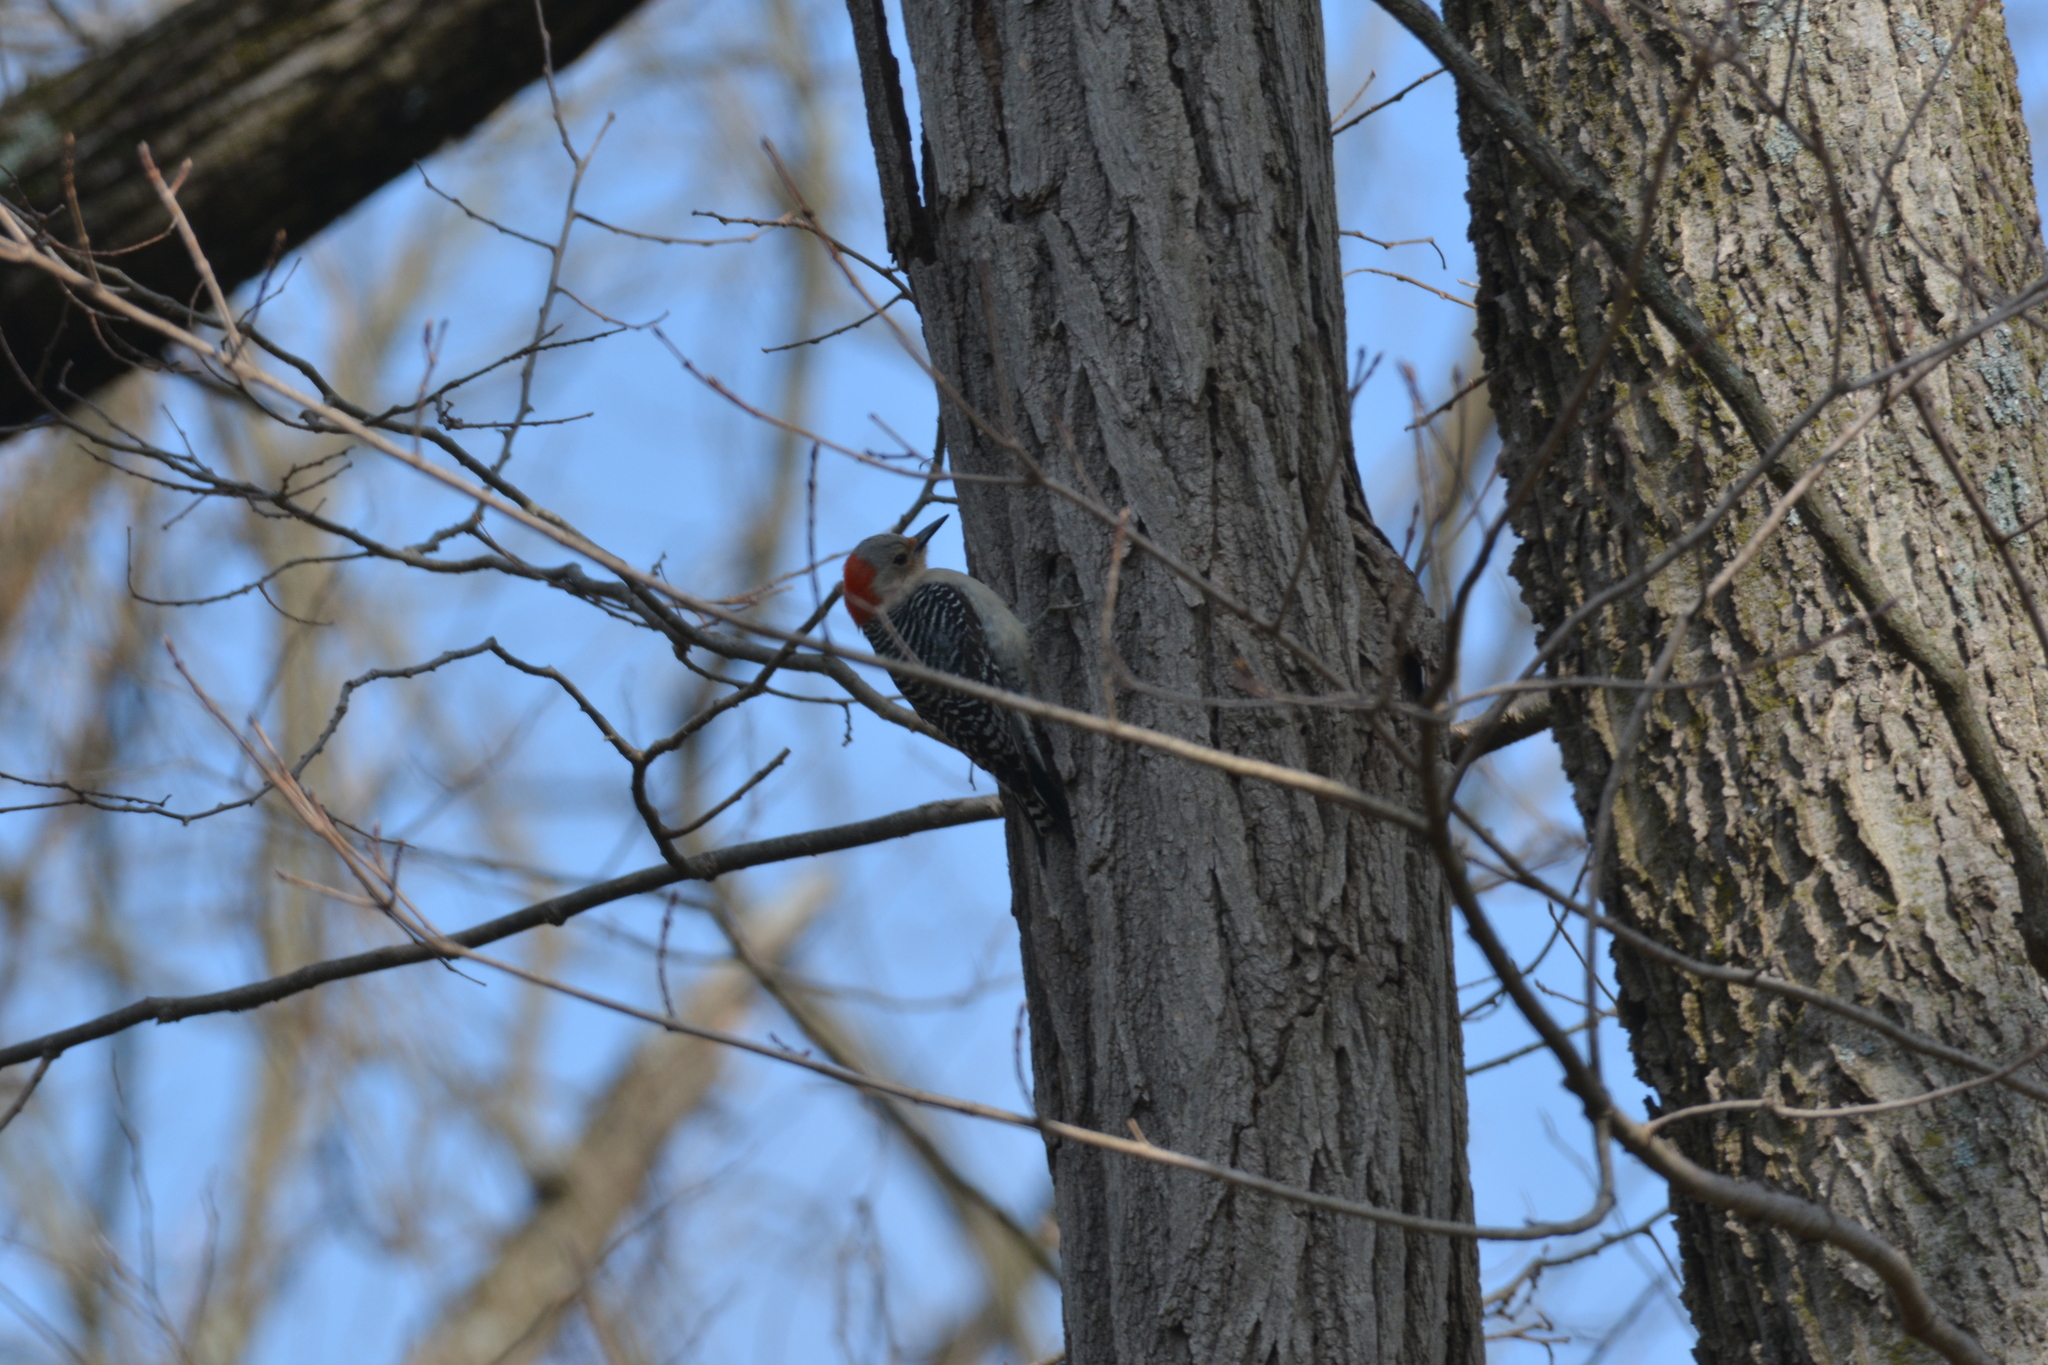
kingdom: Animalia
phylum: Chordata
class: Aves
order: Piciformes
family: Picidae
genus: Melanerpes
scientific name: Melanerpes carolinus
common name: Red-bellied woodpecker
